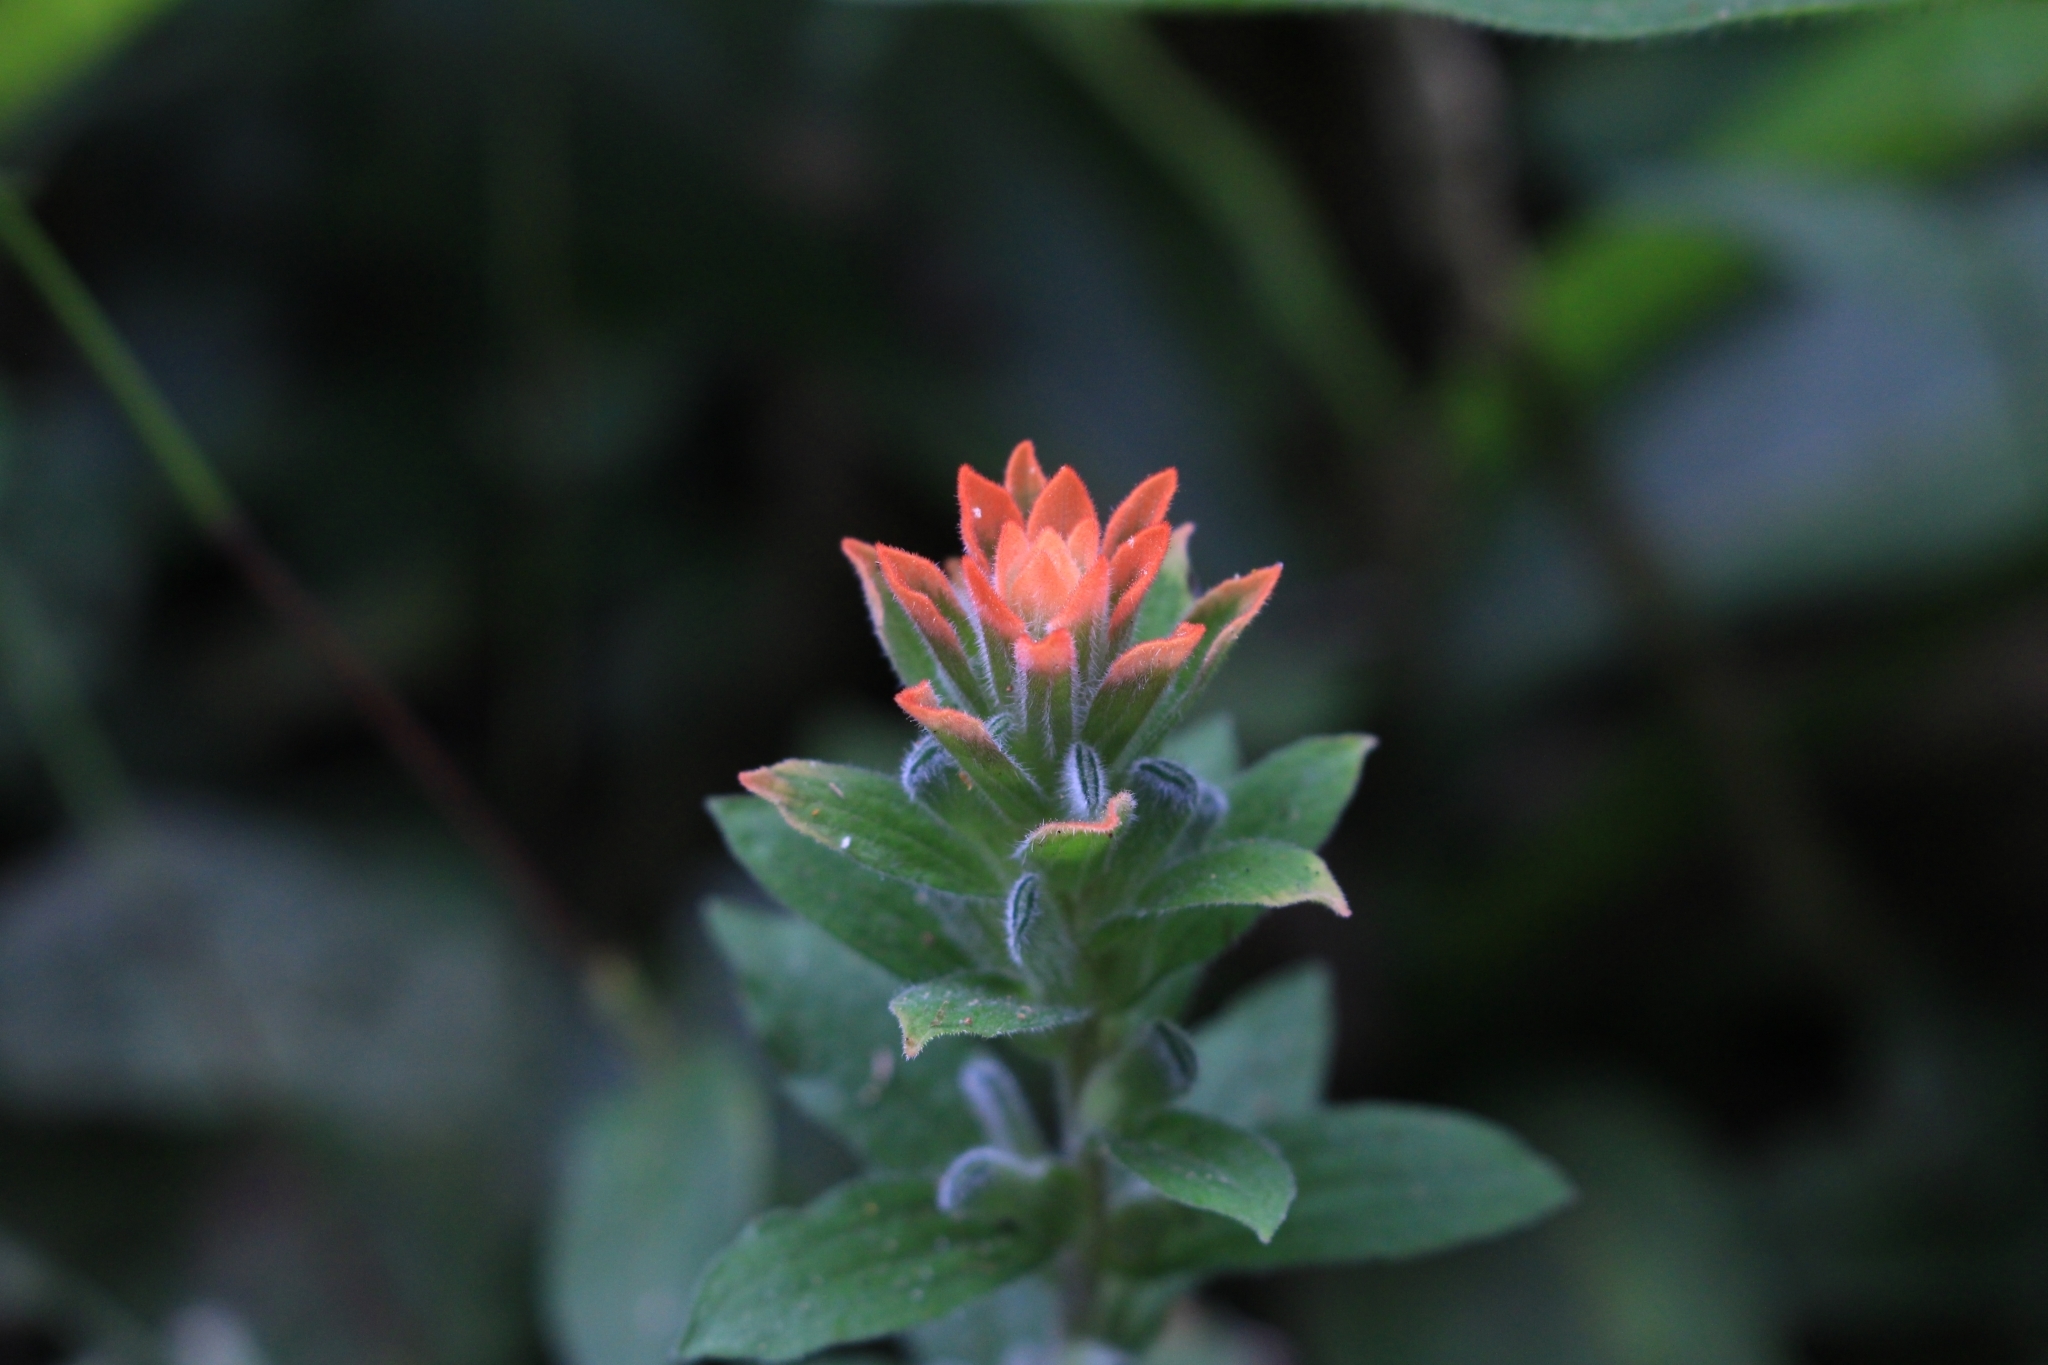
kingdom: Plantae
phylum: Tracheophyta
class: Magnoliopsida
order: Lamiales
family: Orobanchaceae
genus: Castilleja
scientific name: Castilleja arvensis
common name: Indian paintbrush
